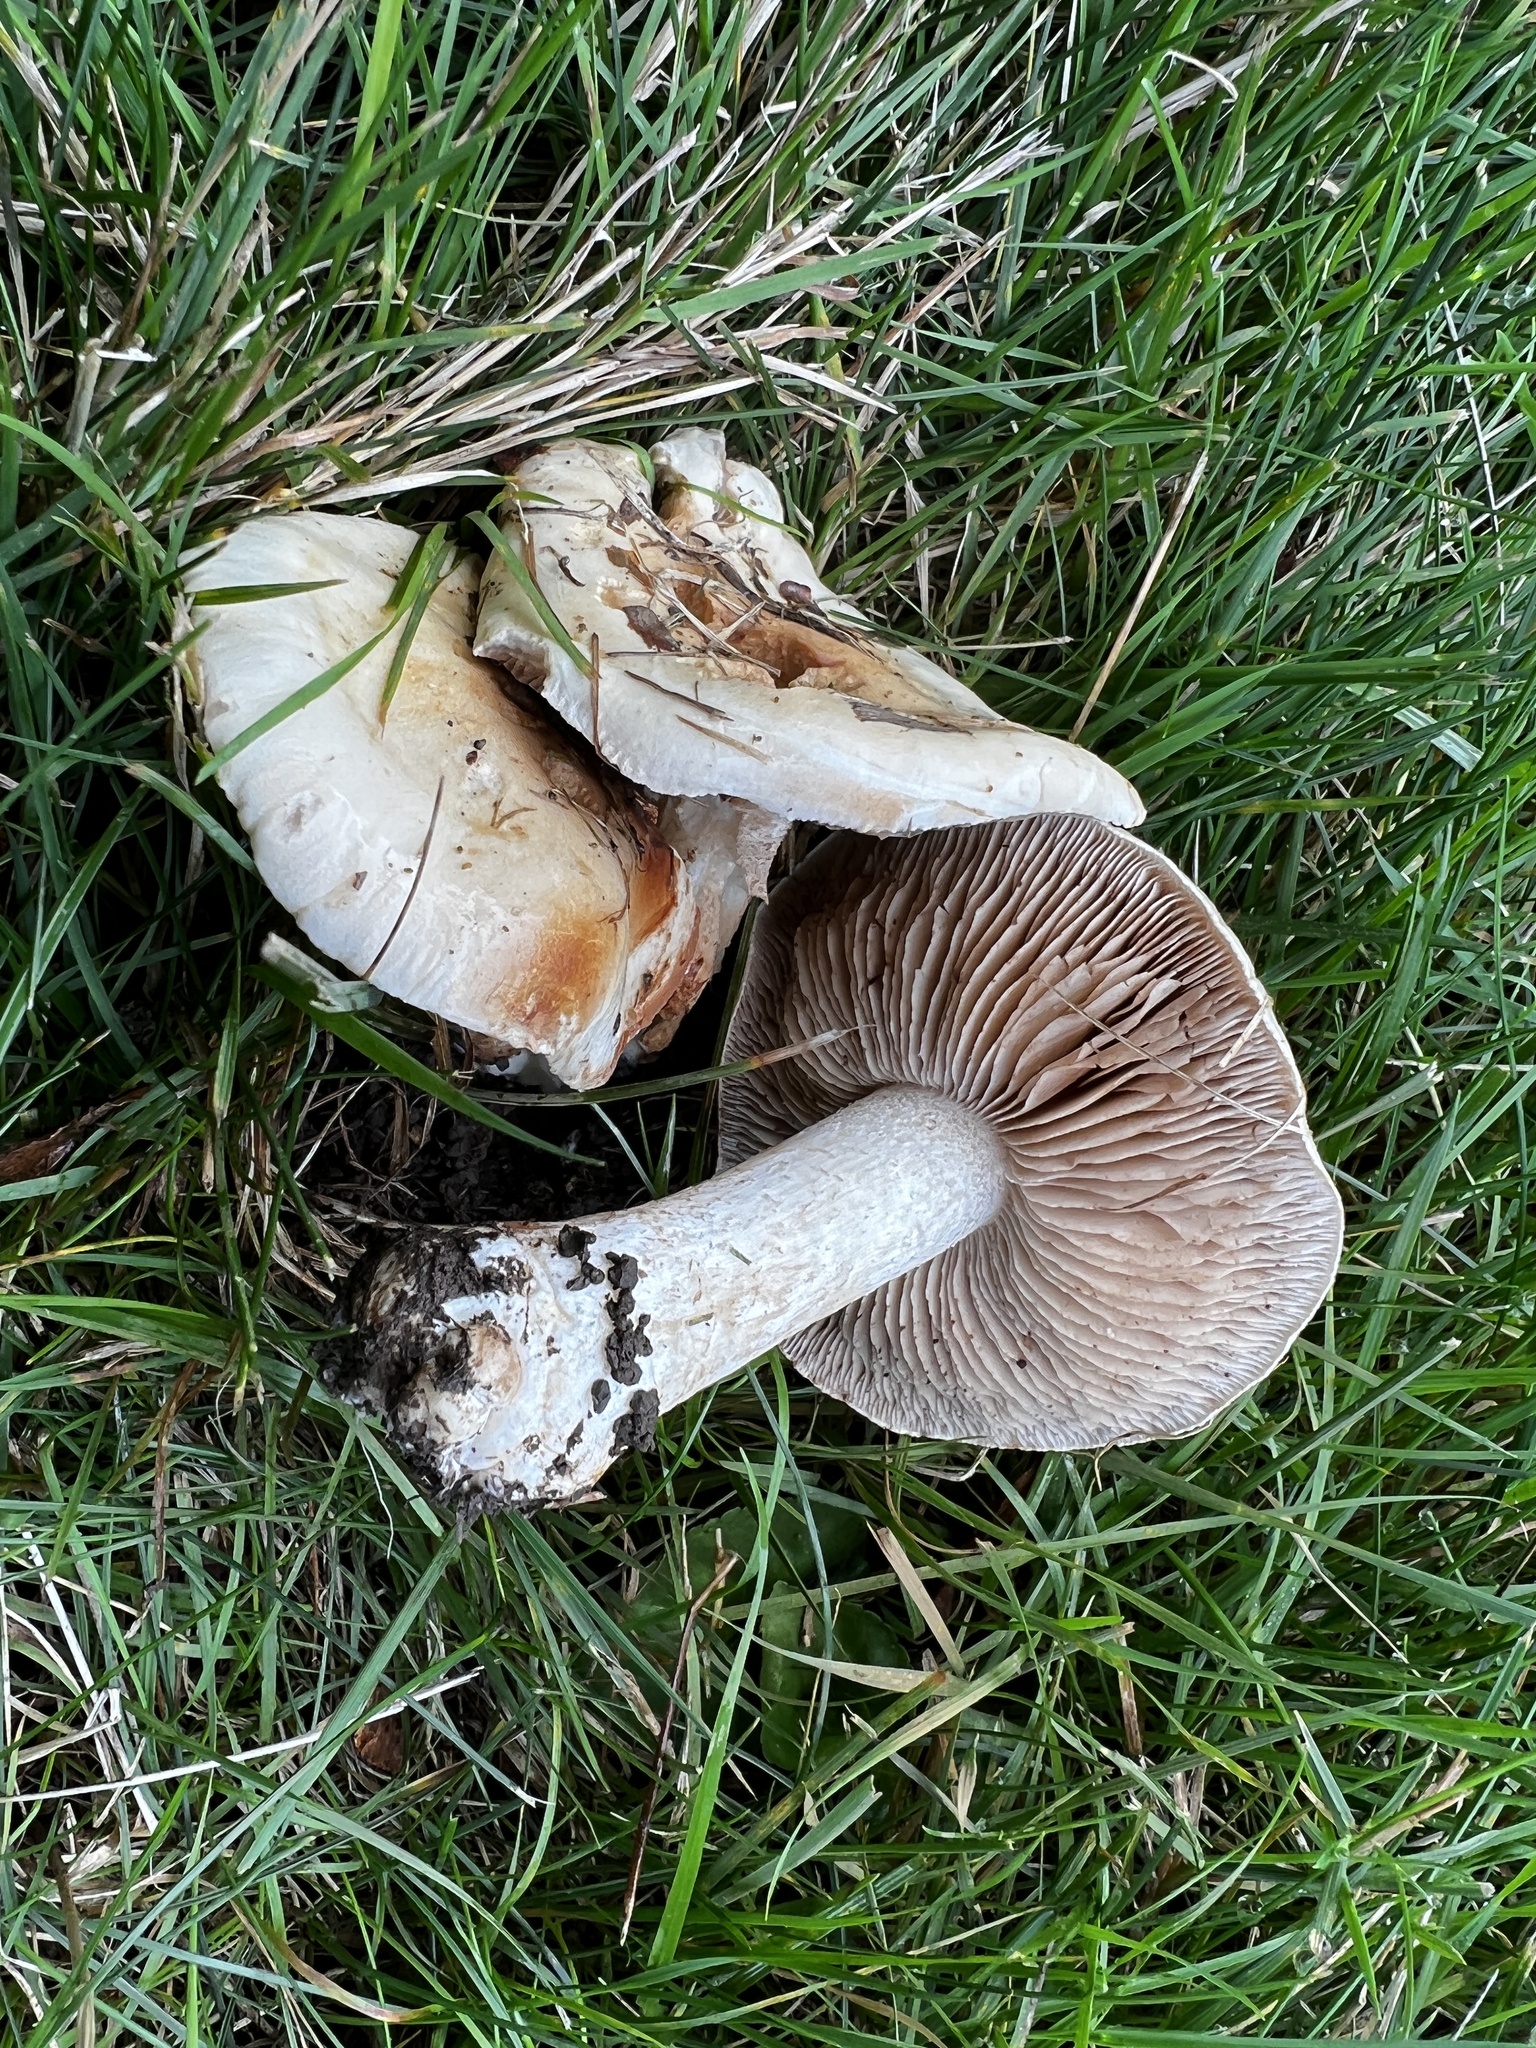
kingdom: Fungi
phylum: Basidiomycota
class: Agaricomycetes
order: Agaricales
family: Hymenogastraceae
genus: Hebeloma
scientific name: Hebeloma crustuliniforme
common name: Poison pie
